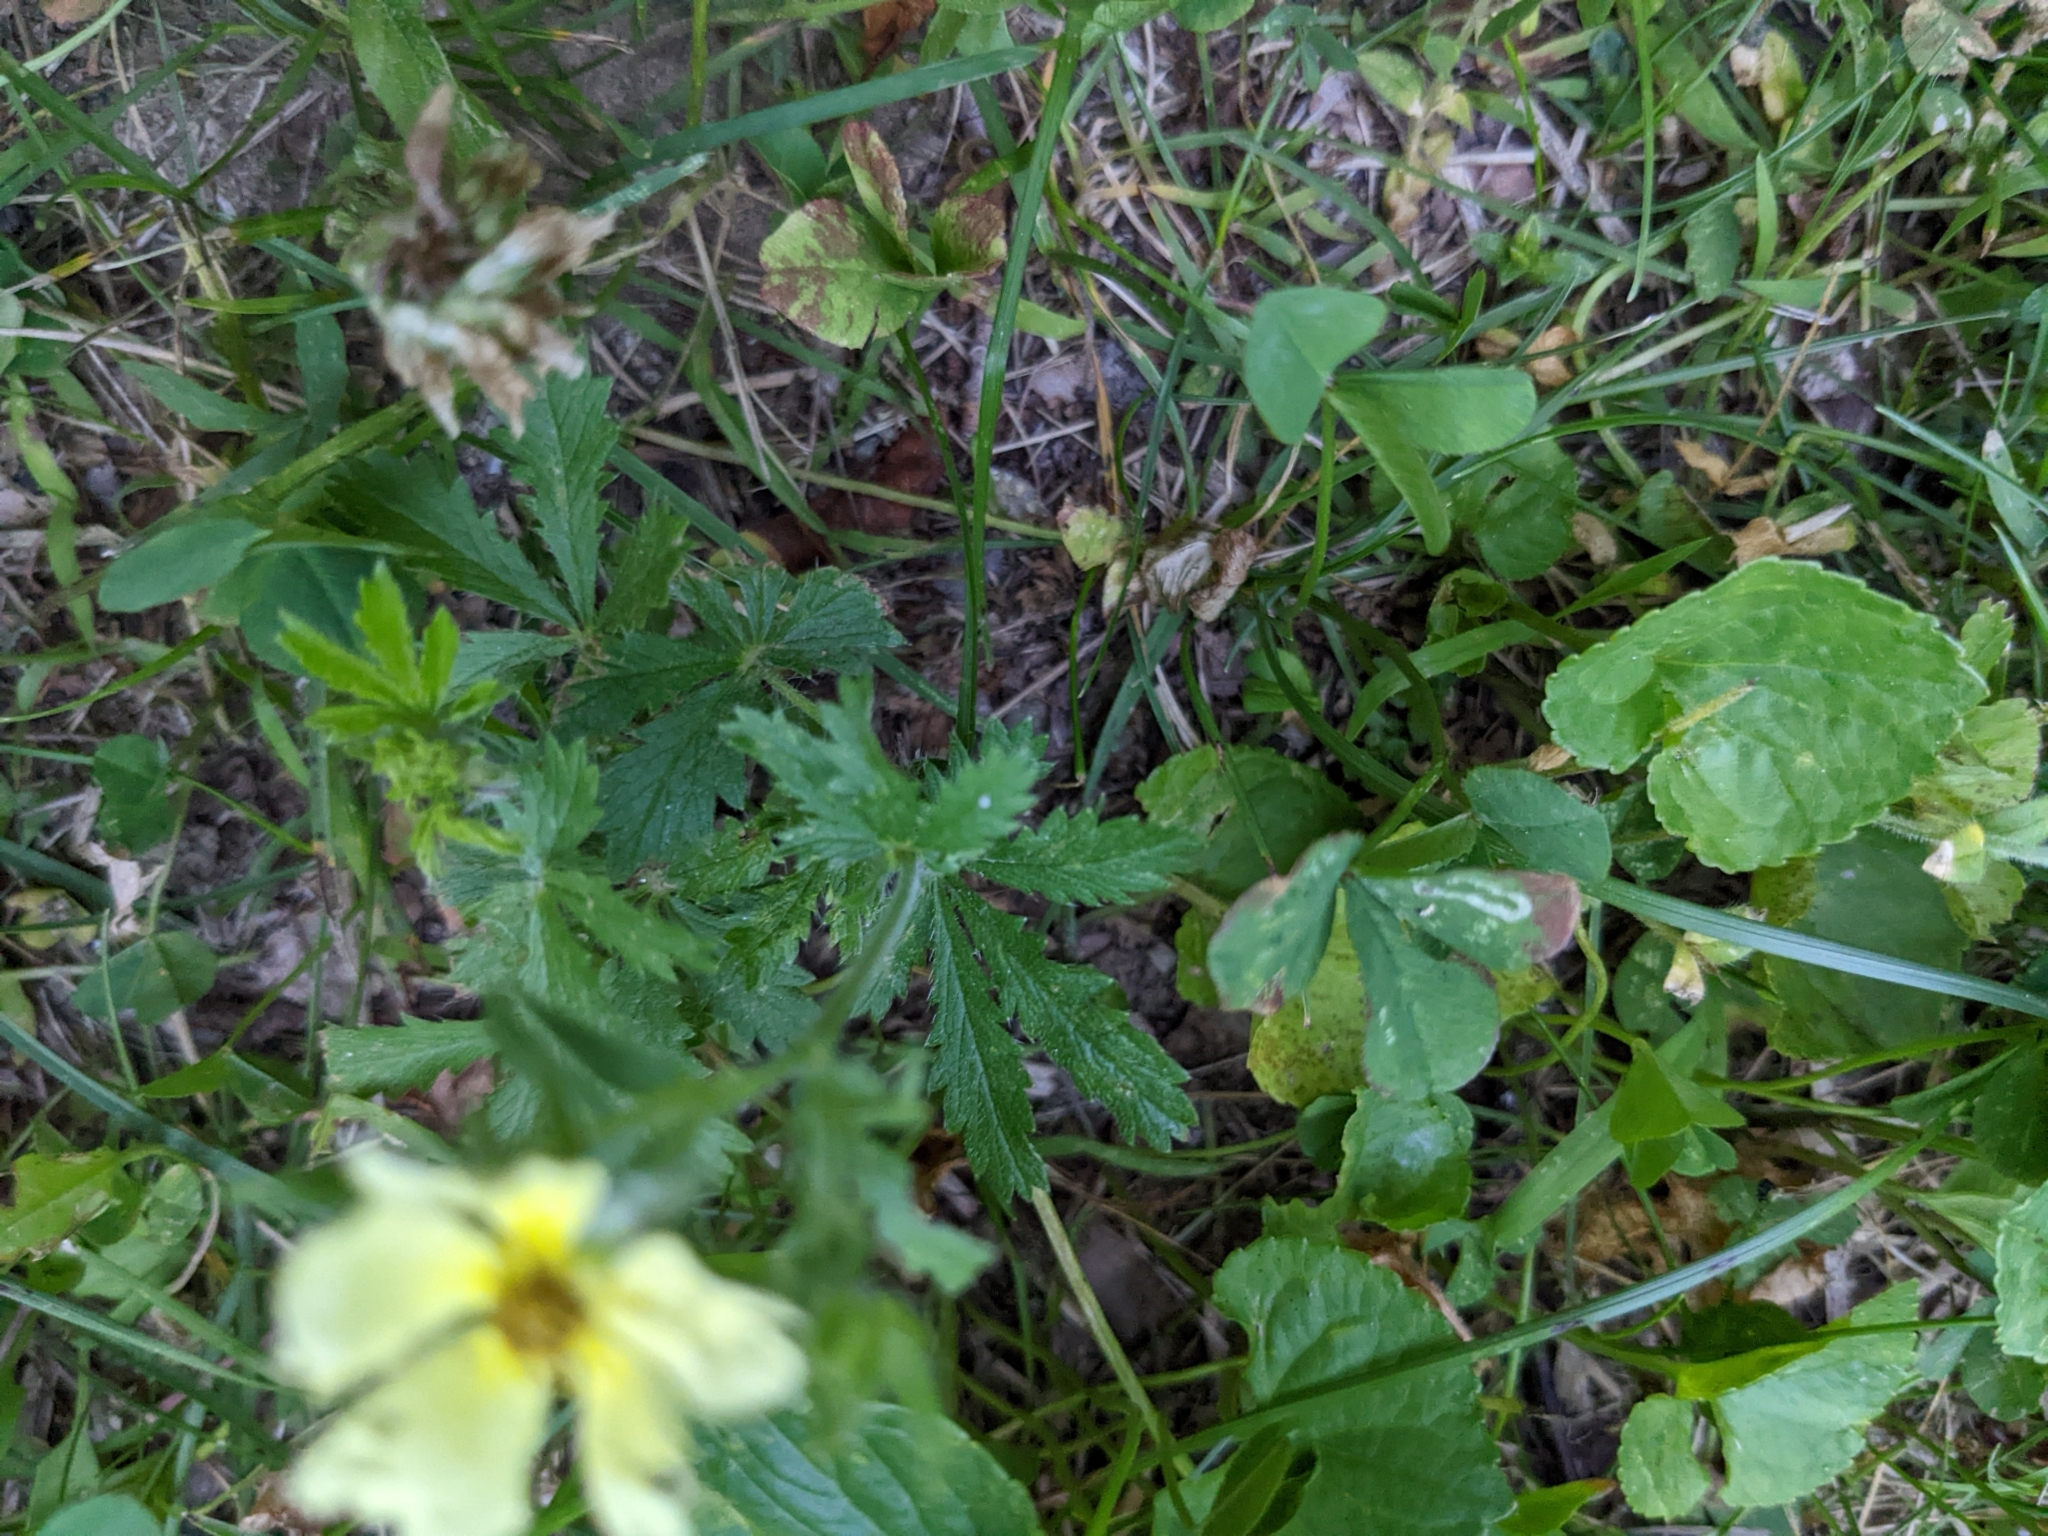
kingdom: Plantae
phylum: Tracheophyta
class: Magnoliopsida
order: Rosales
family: Rosaceae
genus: Potentilla
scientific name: Potentilla recta
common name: Sulphur cinquefoil
